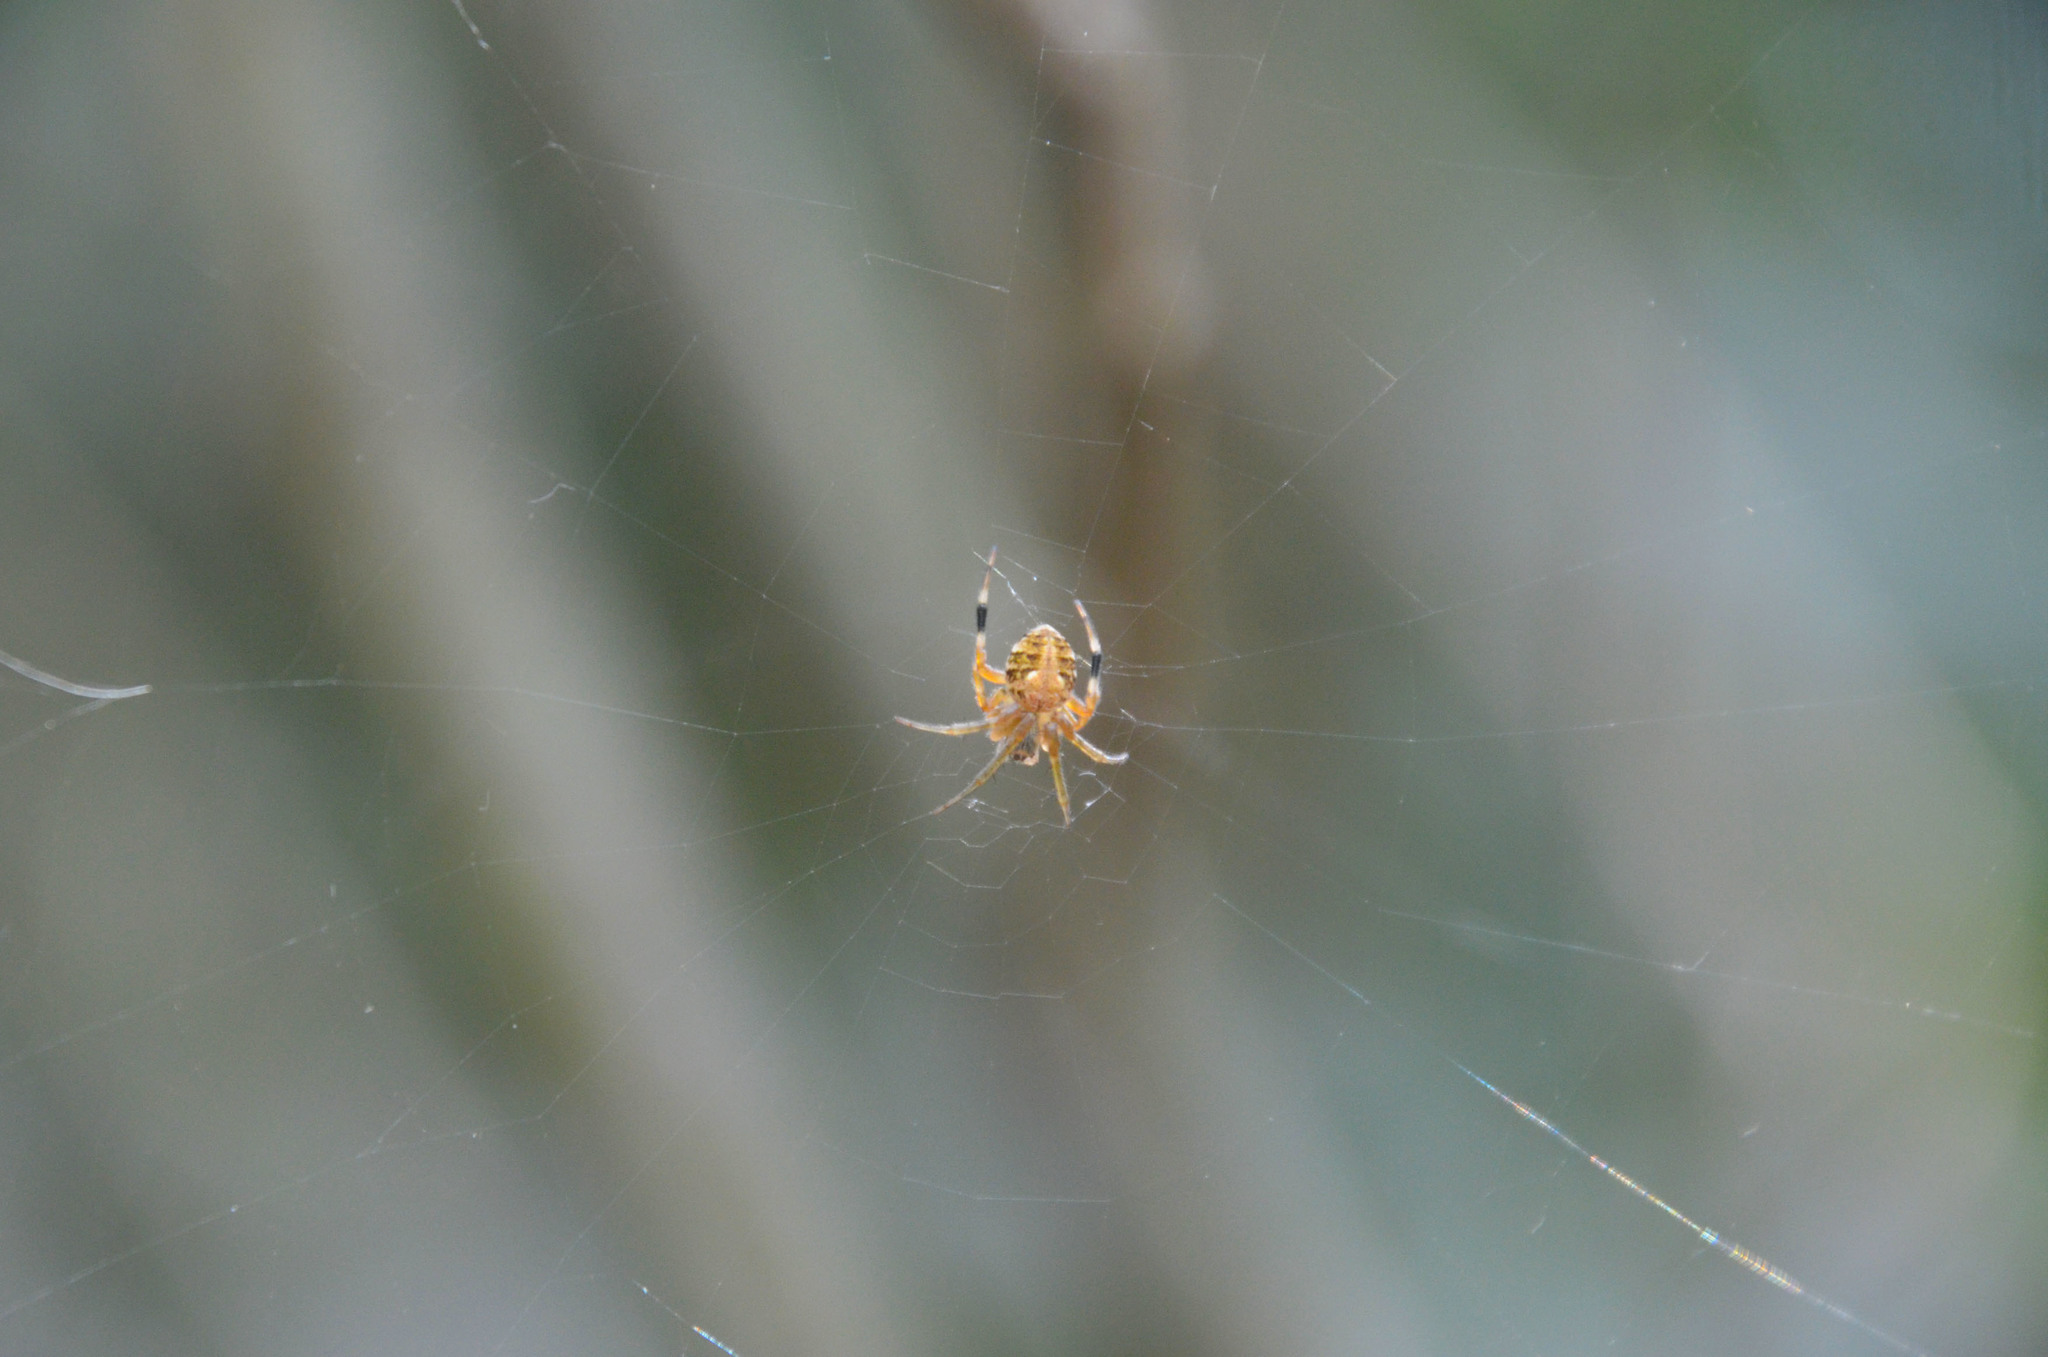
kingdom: Animalia
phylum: Arthropoda
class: Arachnida
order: Araneae
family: Araneidae
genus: Araneus
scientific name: Araneus omnicolor
